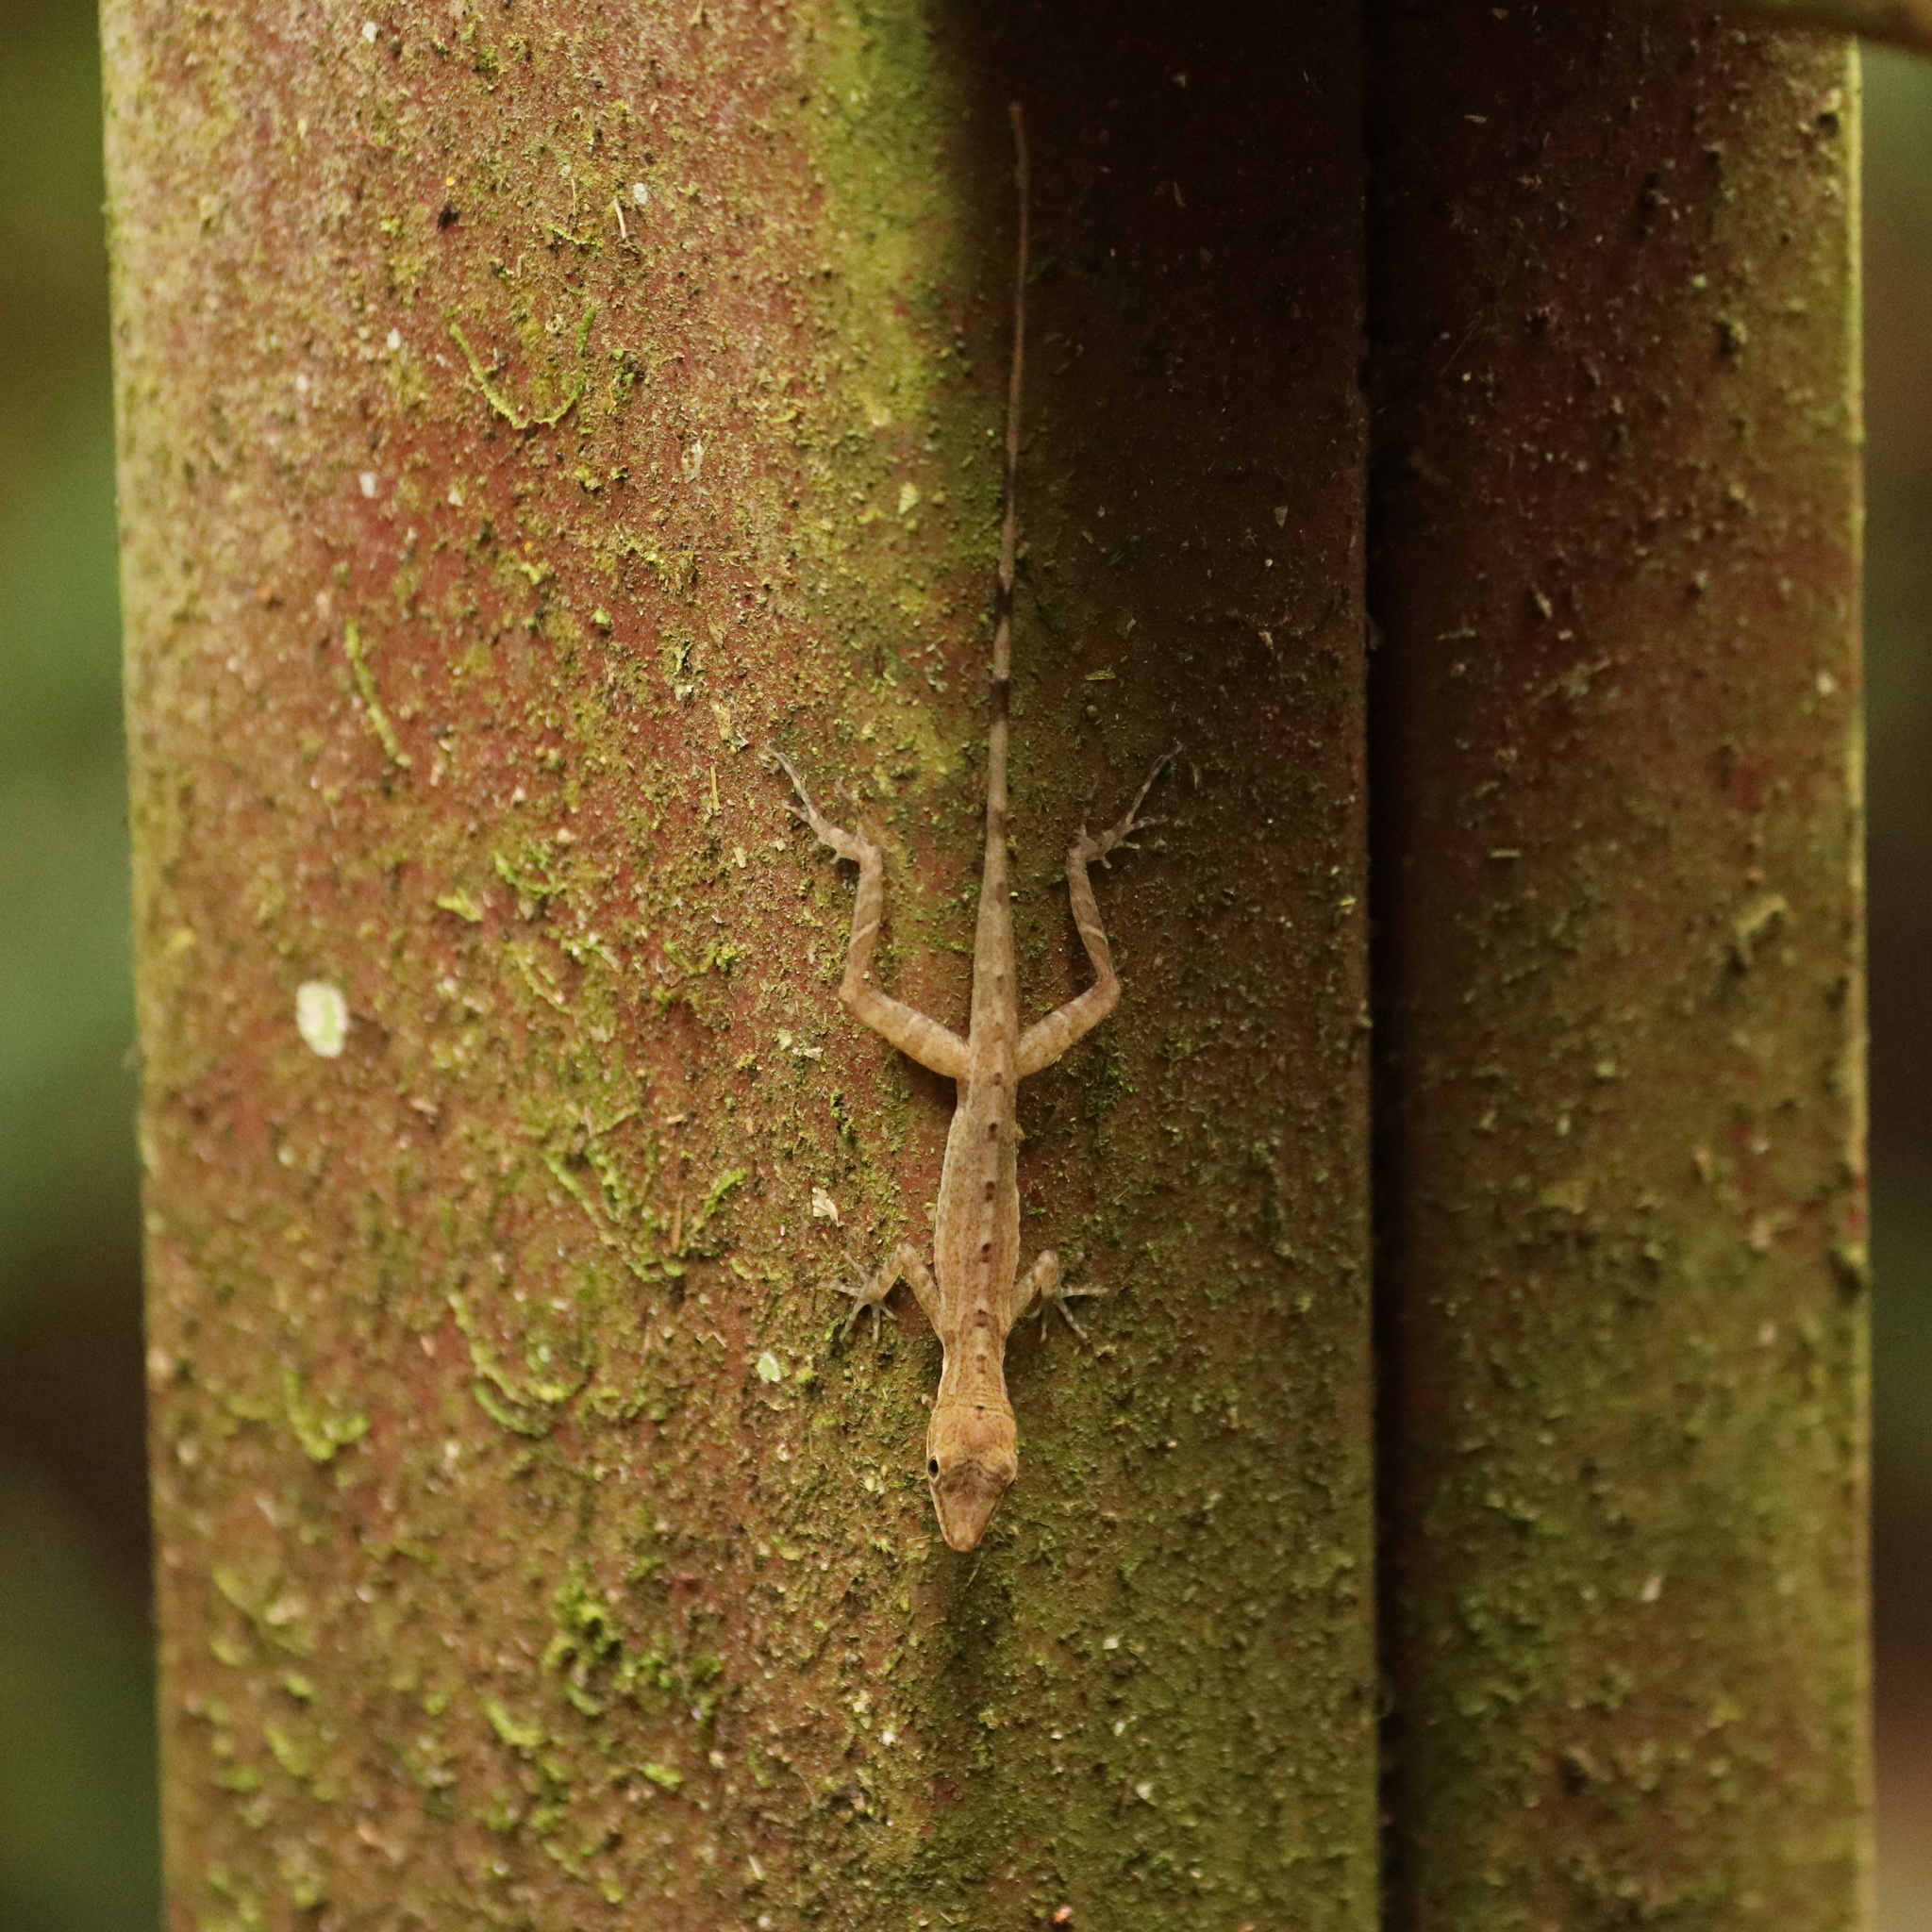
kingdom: Animalia
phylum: Chordata
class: Squamata
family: Dactyloidae
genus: Anolis
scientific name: Anolis apletophallus
